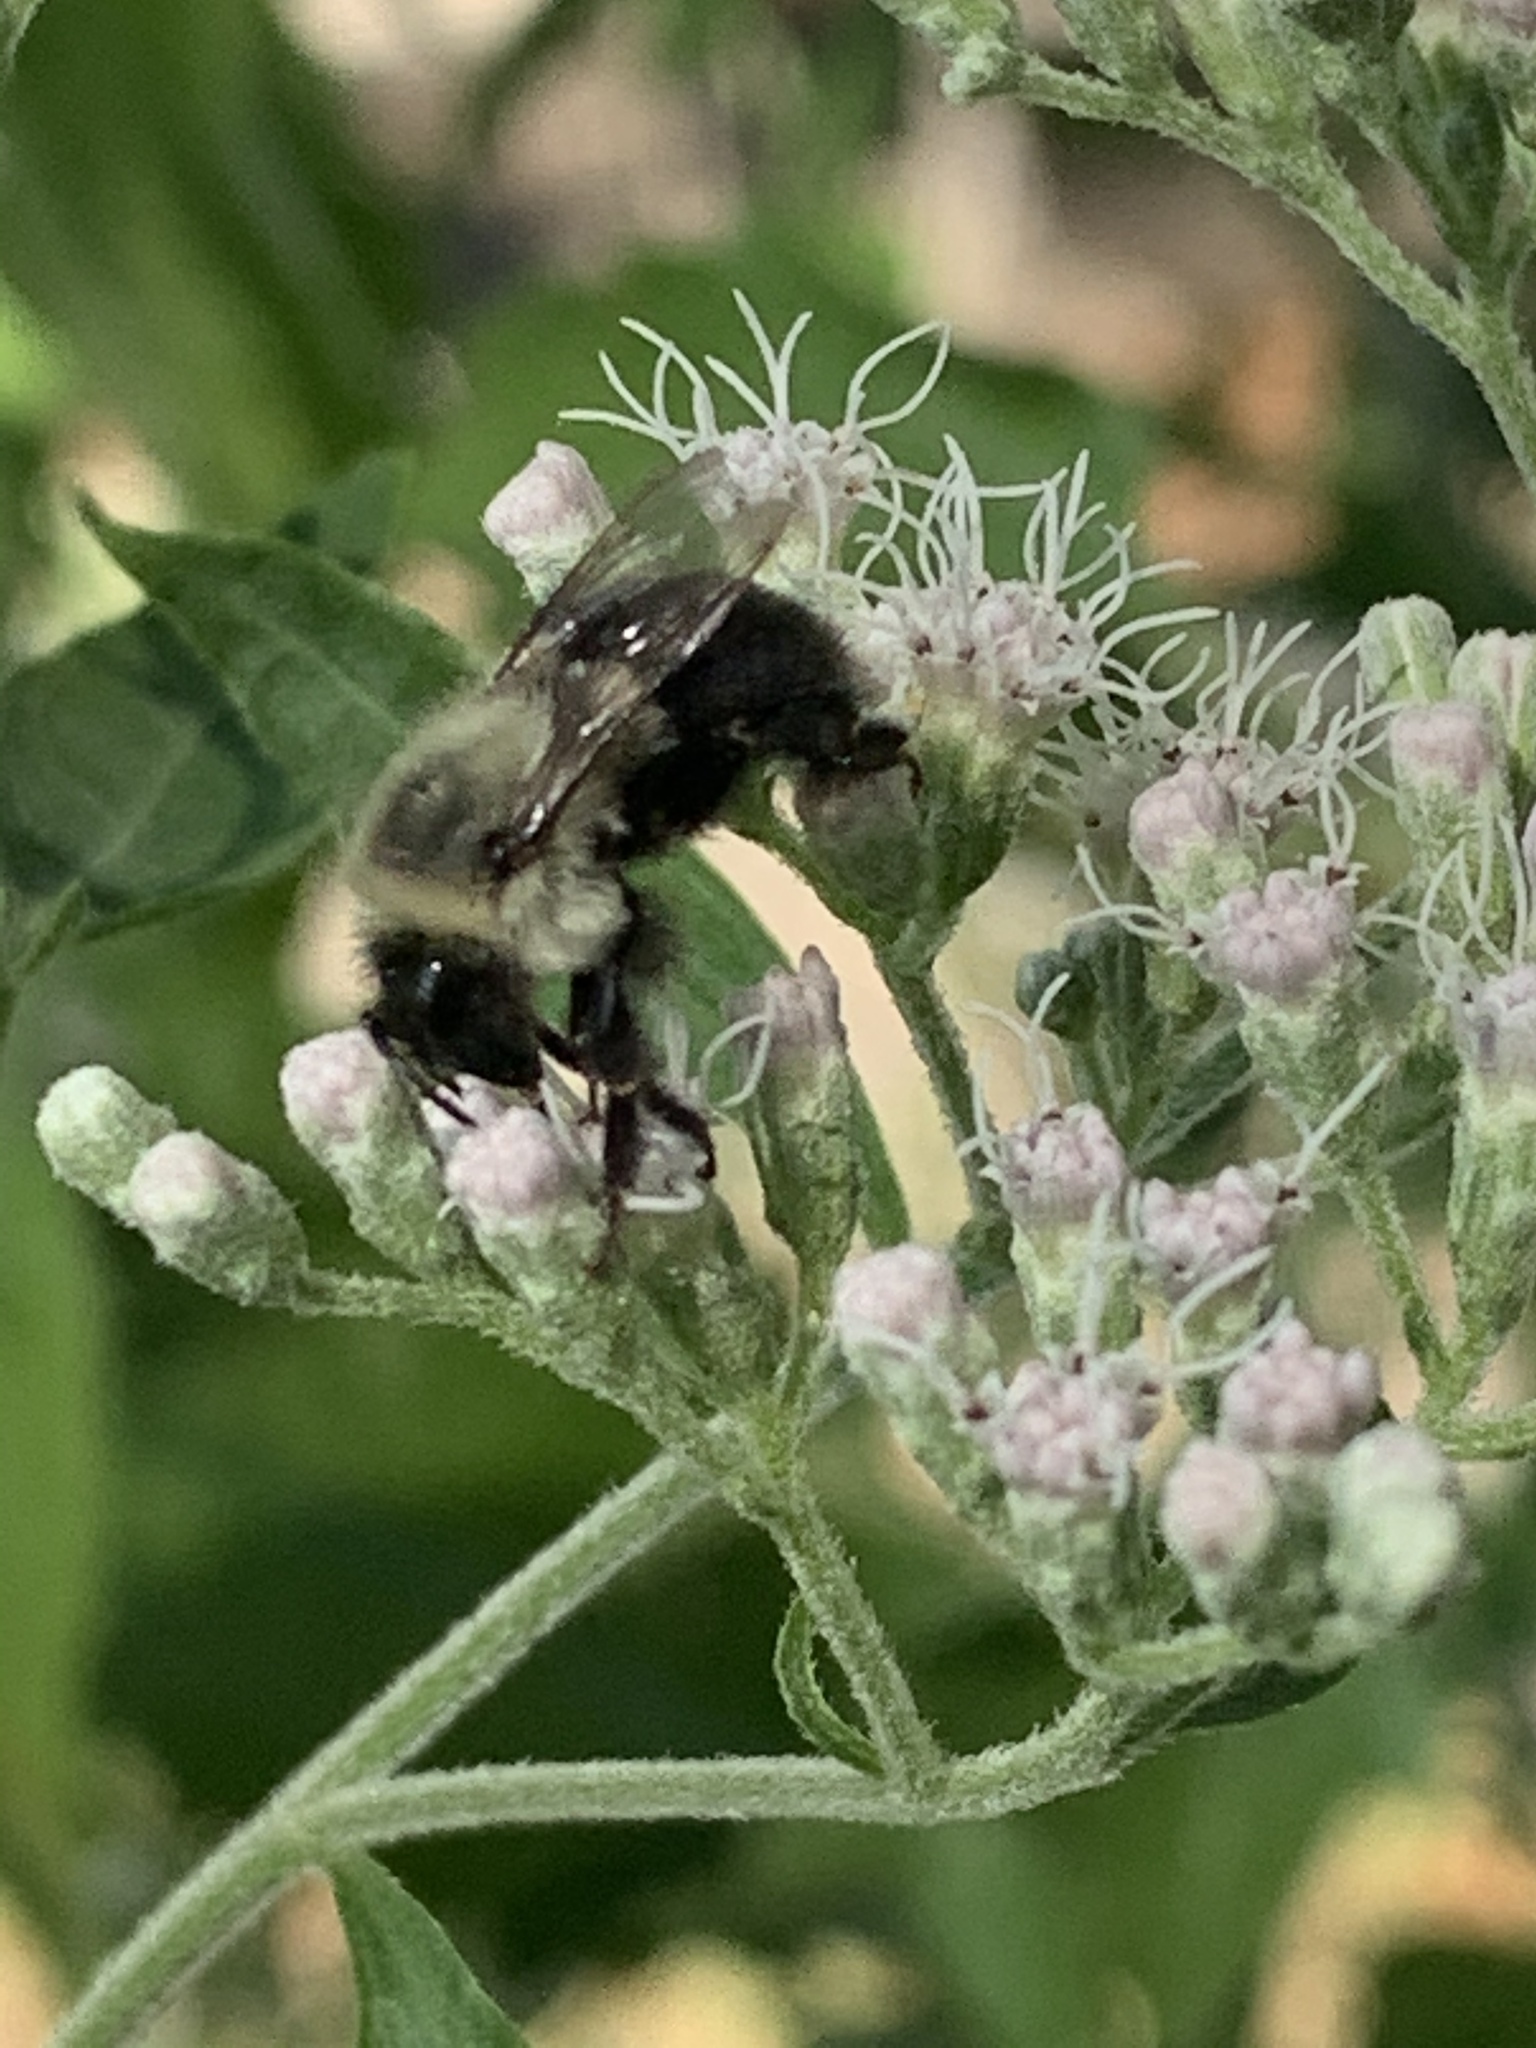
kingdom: Animalia
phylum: Arthropoda
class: Insecta
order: Hymenoptera
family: Apidae
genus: Bombus
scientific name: Bombus impatiens
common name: Common eastern bumble bee
